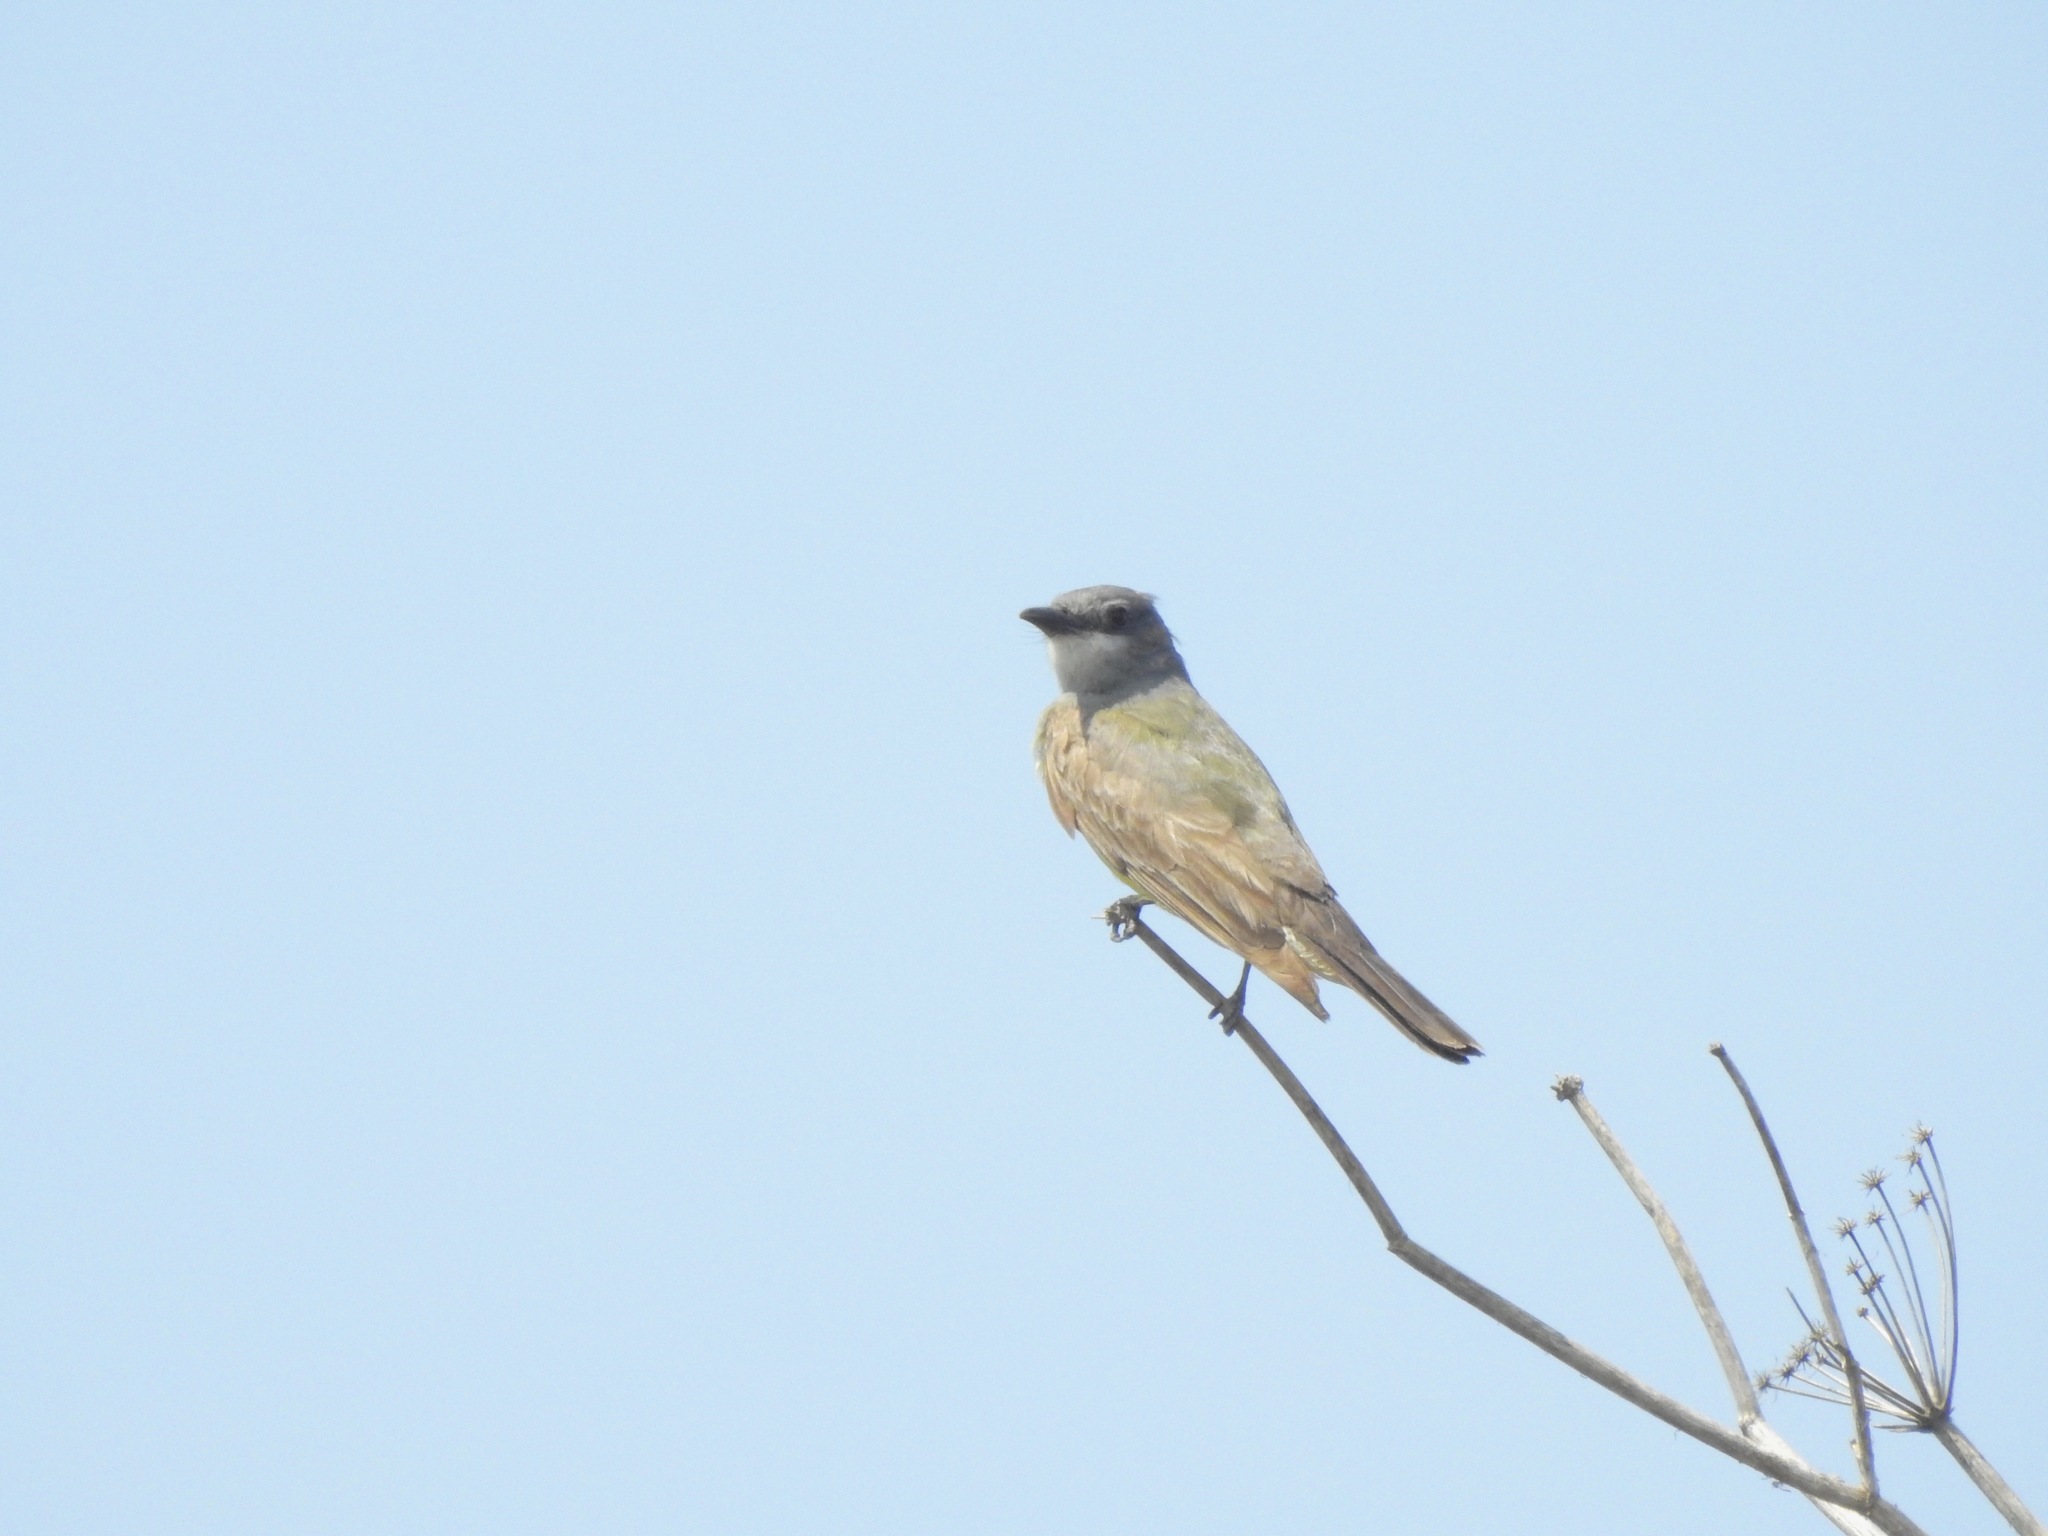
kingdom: Animalia
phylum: Chordata
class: Aves
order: Passeriformes
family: Tyrannidae
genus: Tyrannus
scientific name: Tyrannus vociferans
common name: Cassin's kingbird
